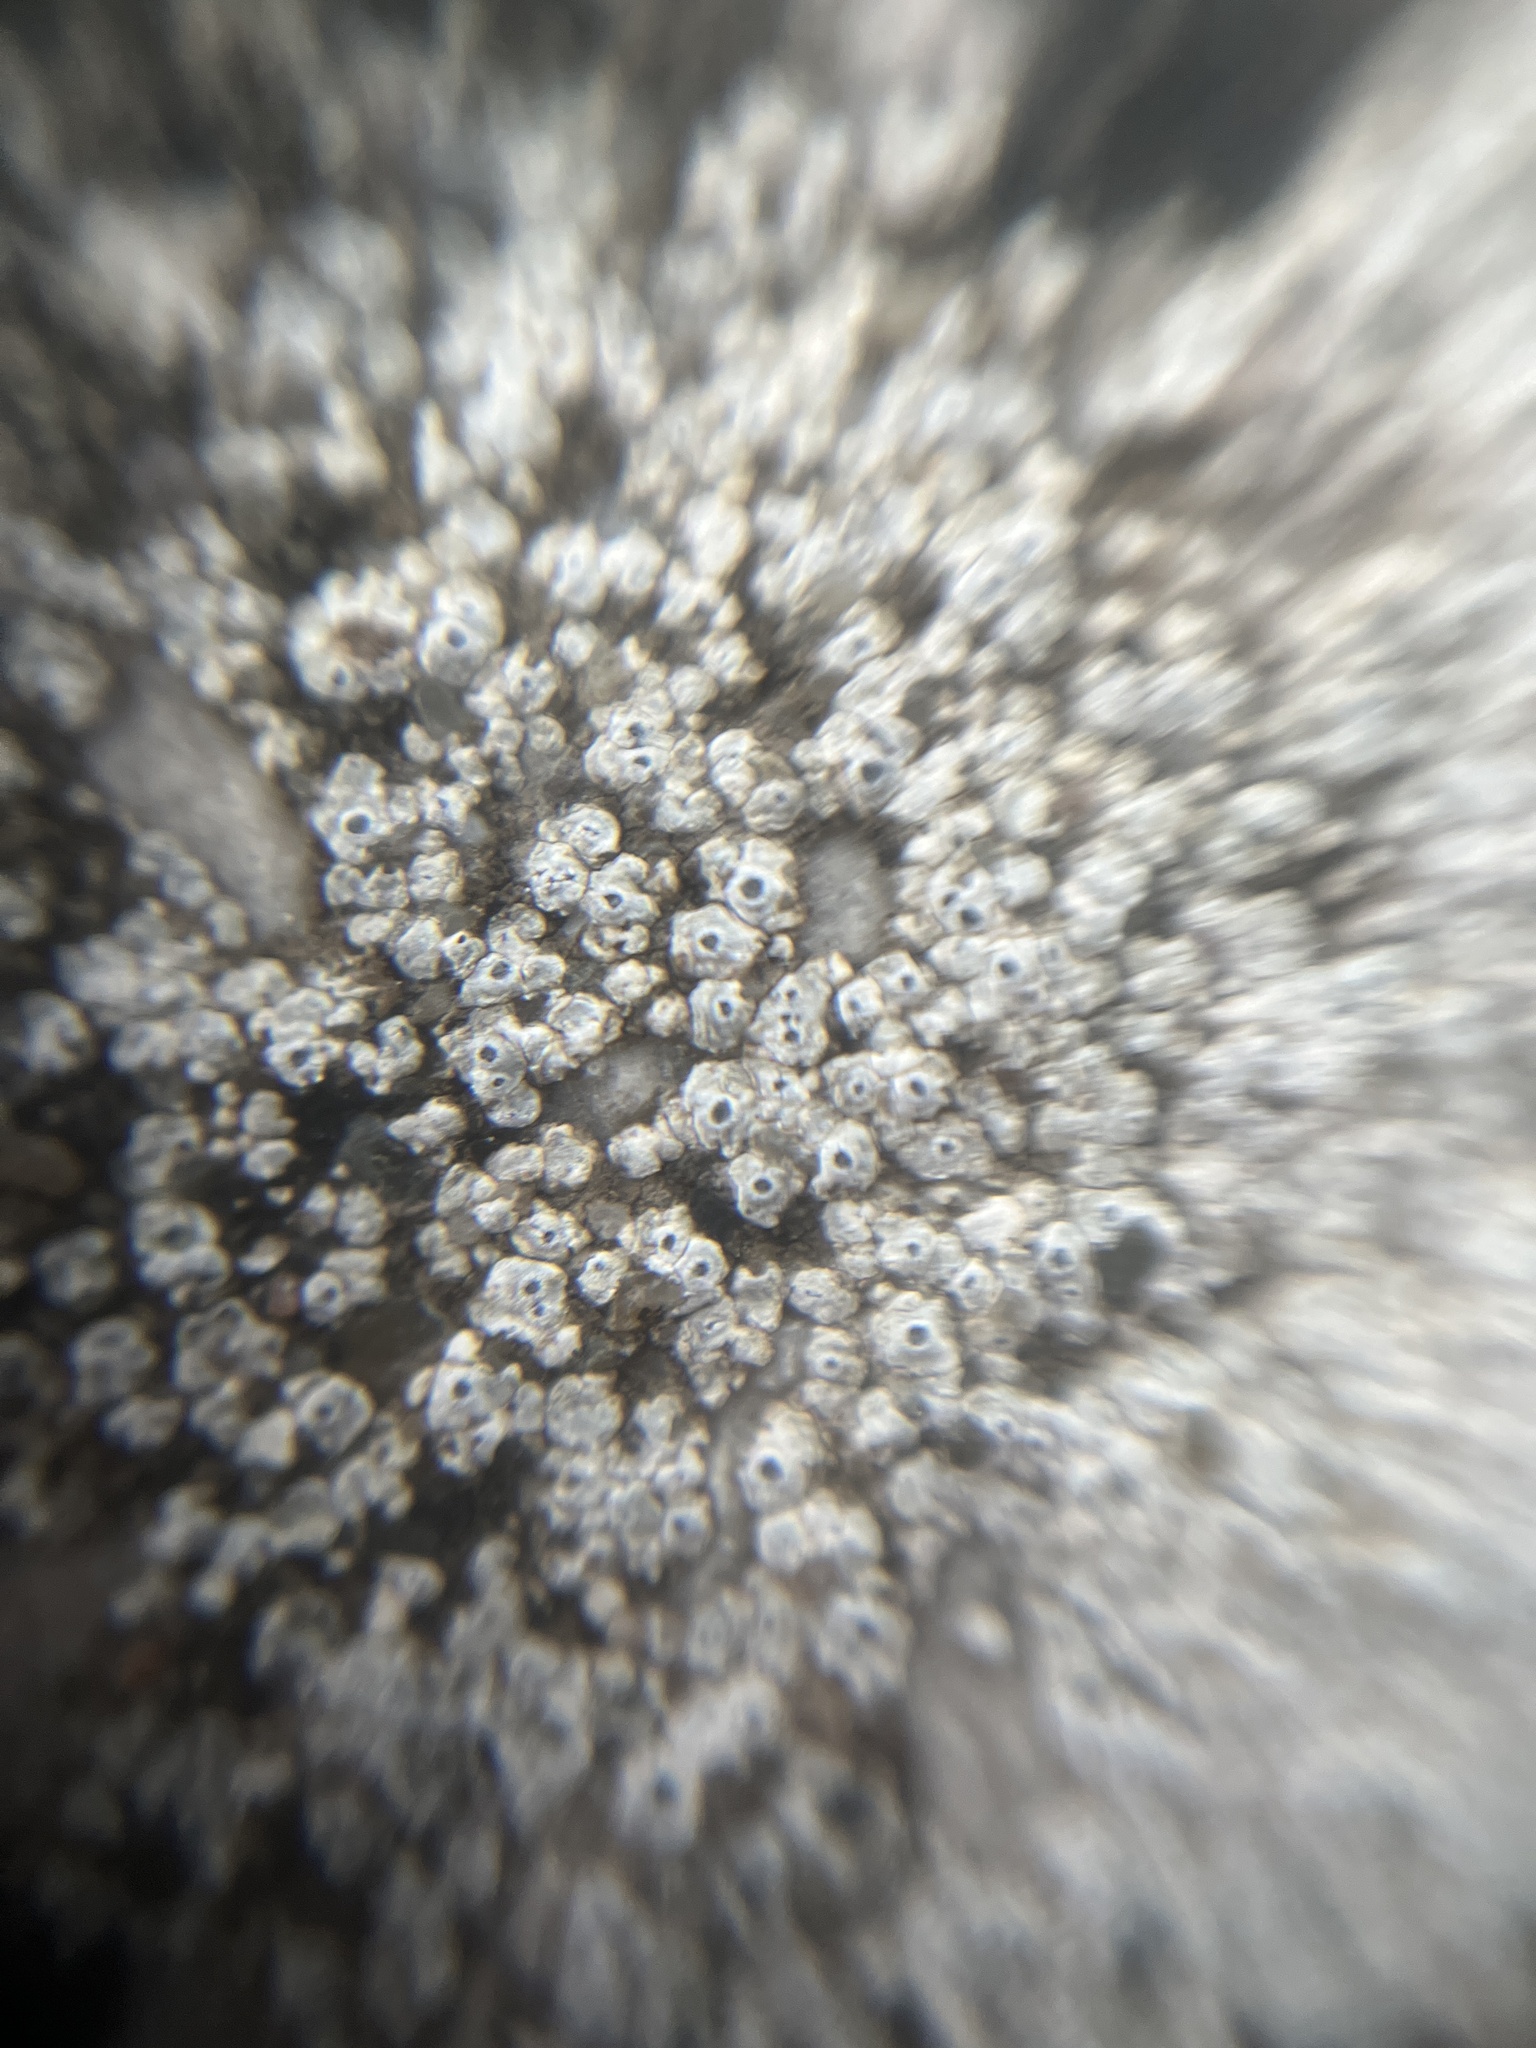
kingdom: Fungi
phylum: Ascomycota
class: Lecanoromycetes
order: Pertusariales
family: Megasporaceae
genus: Circinaria
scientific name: Circinaria contorta
